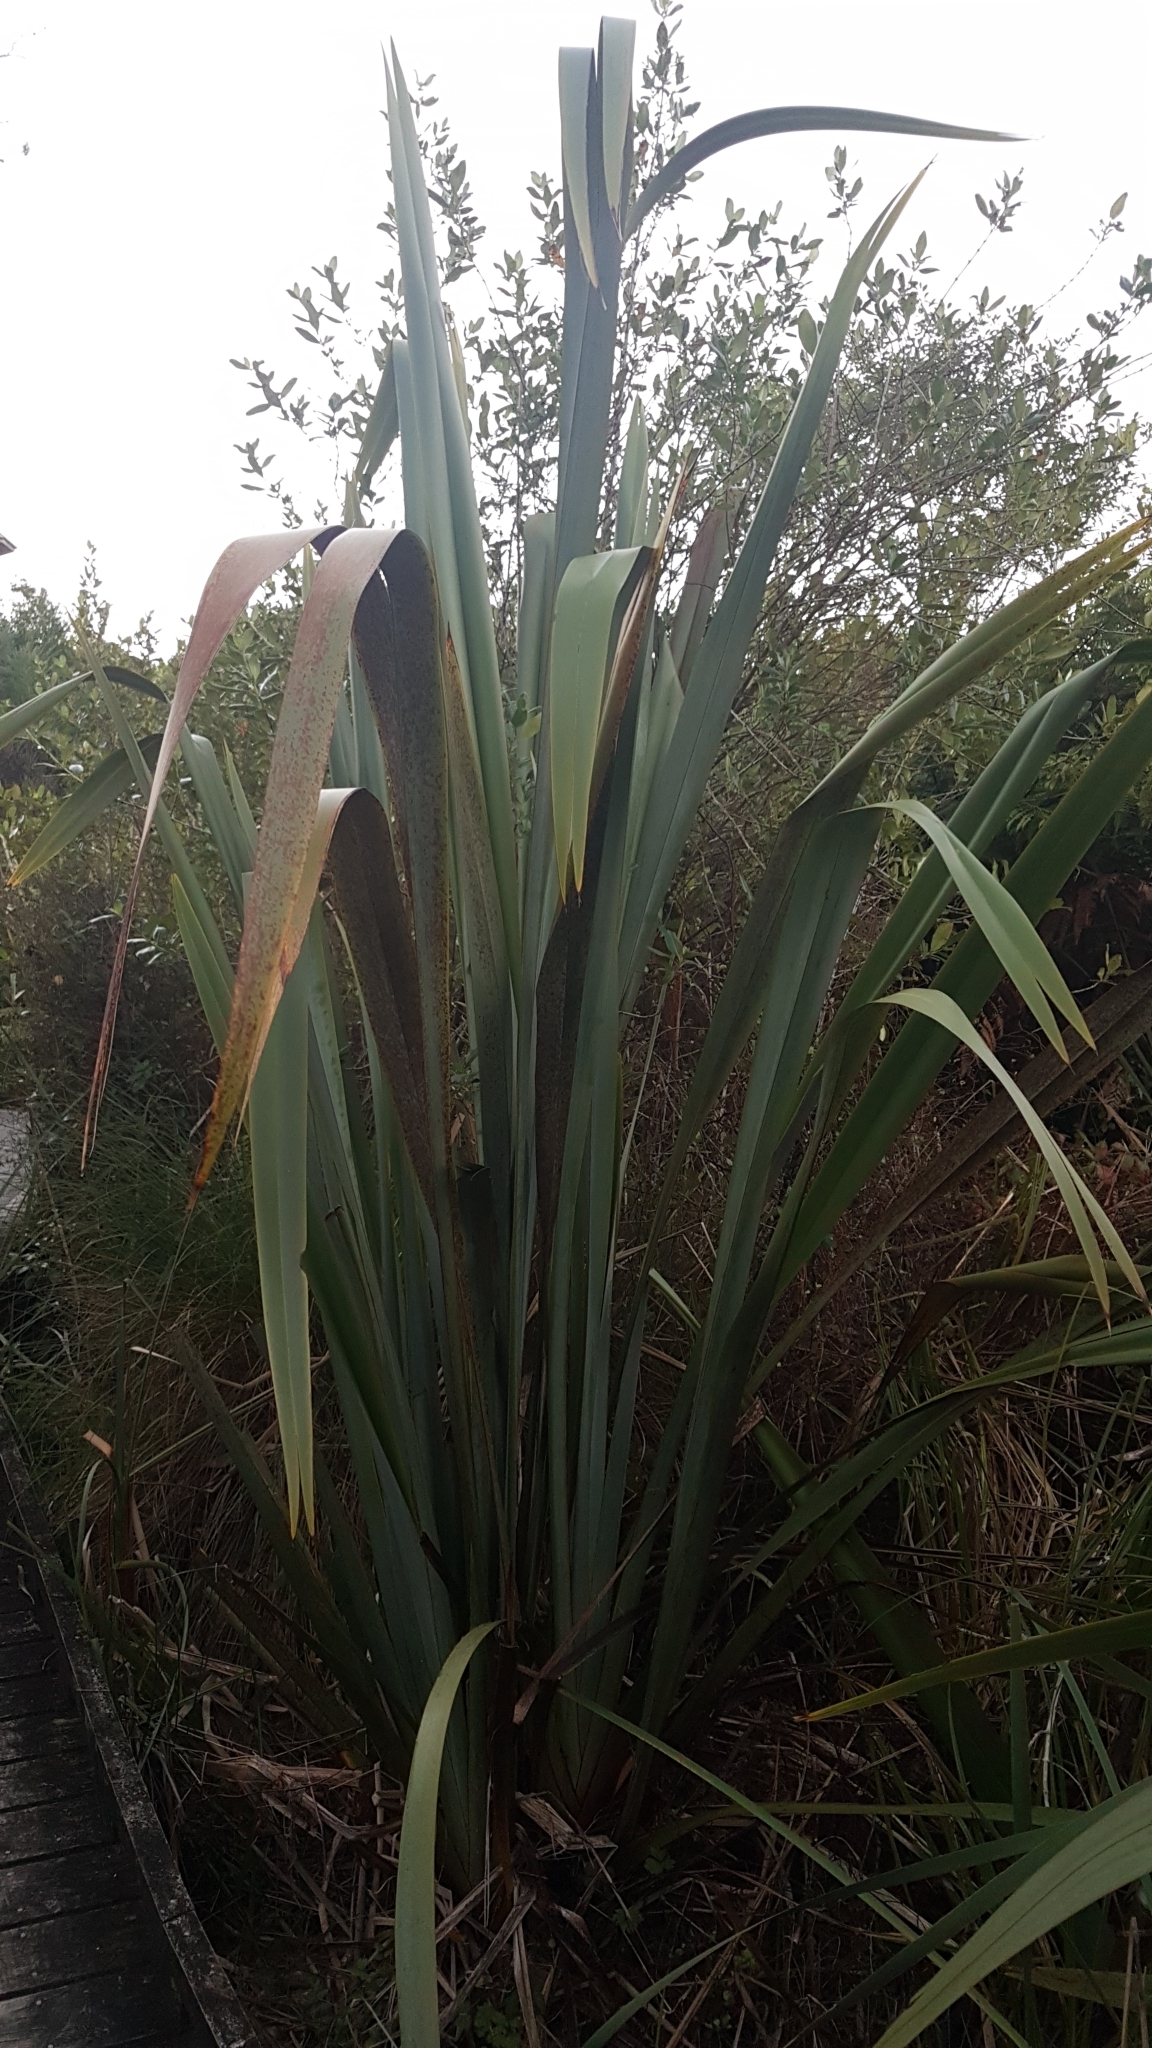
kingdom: Plantae
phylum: Tracheophyta
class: Liliopsida
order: Asparagales
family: Asphodelaceae
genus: Phormium
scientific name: Phormium tenax
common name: New zealand flax
